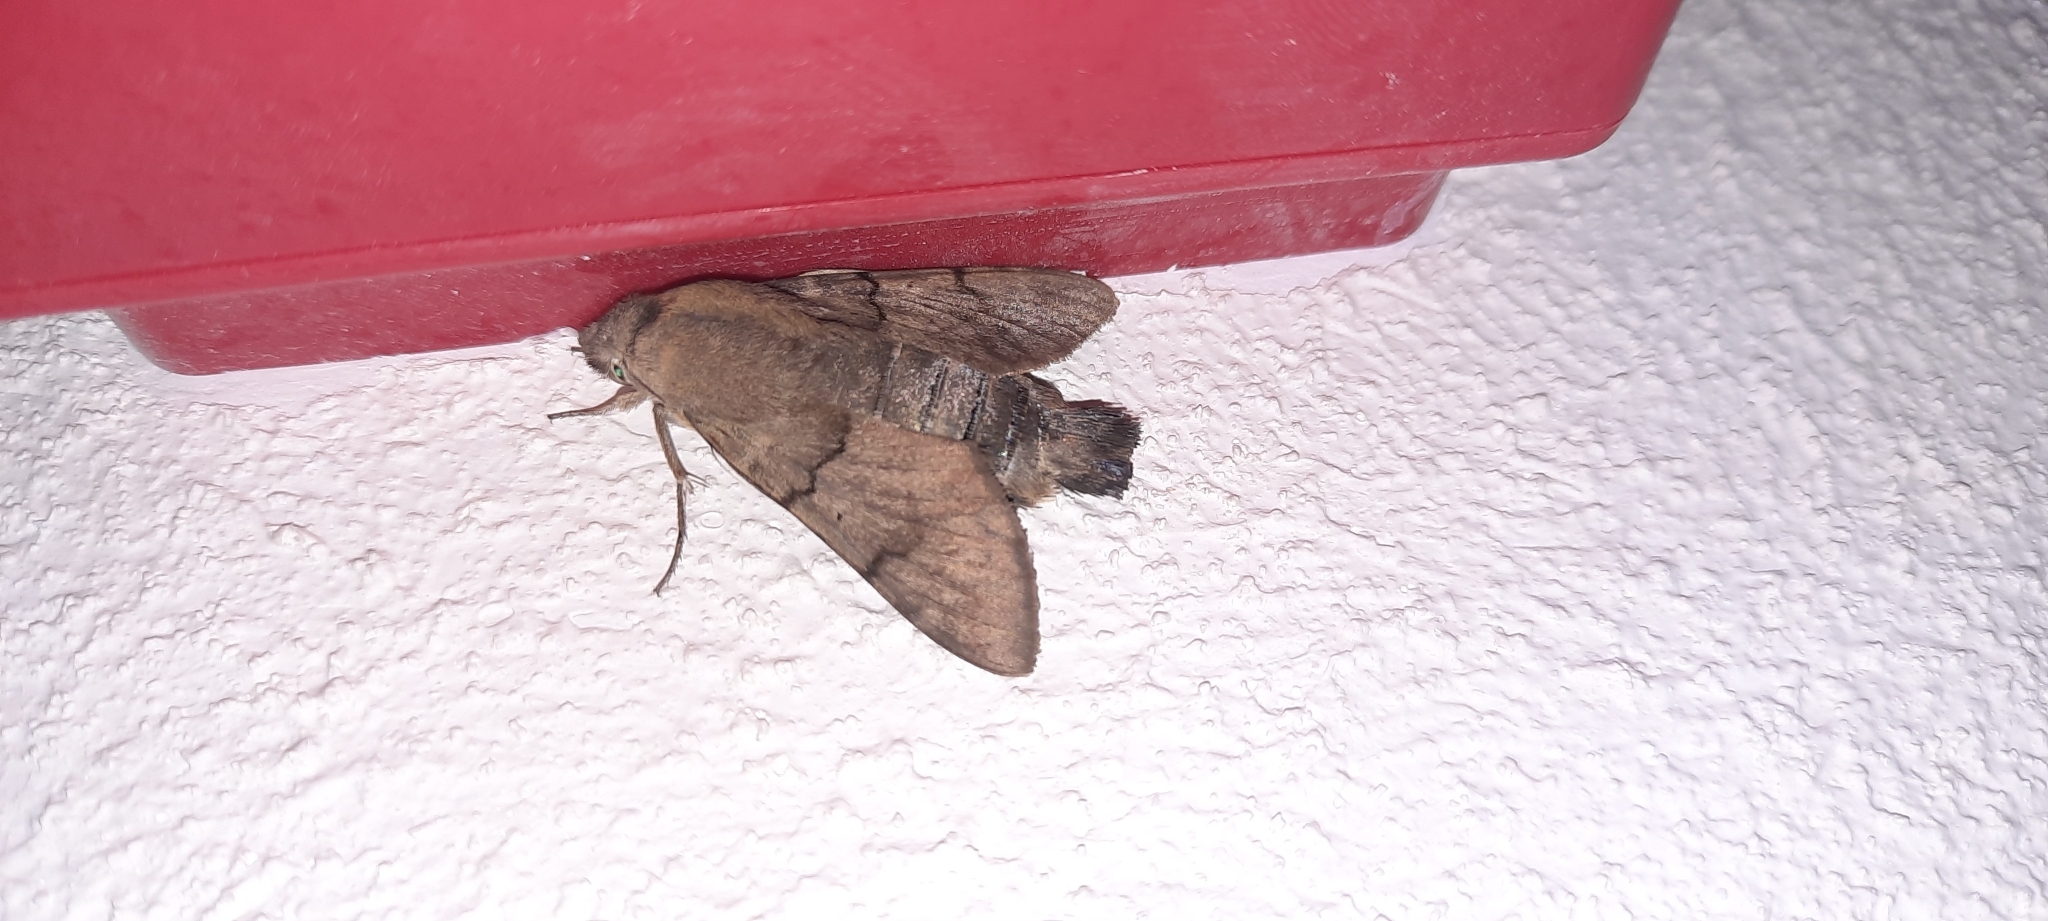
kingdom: Animalia
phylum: Arthropoda
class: Insecta
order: Lepidoptera
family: Sphingidae
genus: Macroglossum
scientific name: Macroglossum stellatarum
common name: Humming-bird hawk-moth
